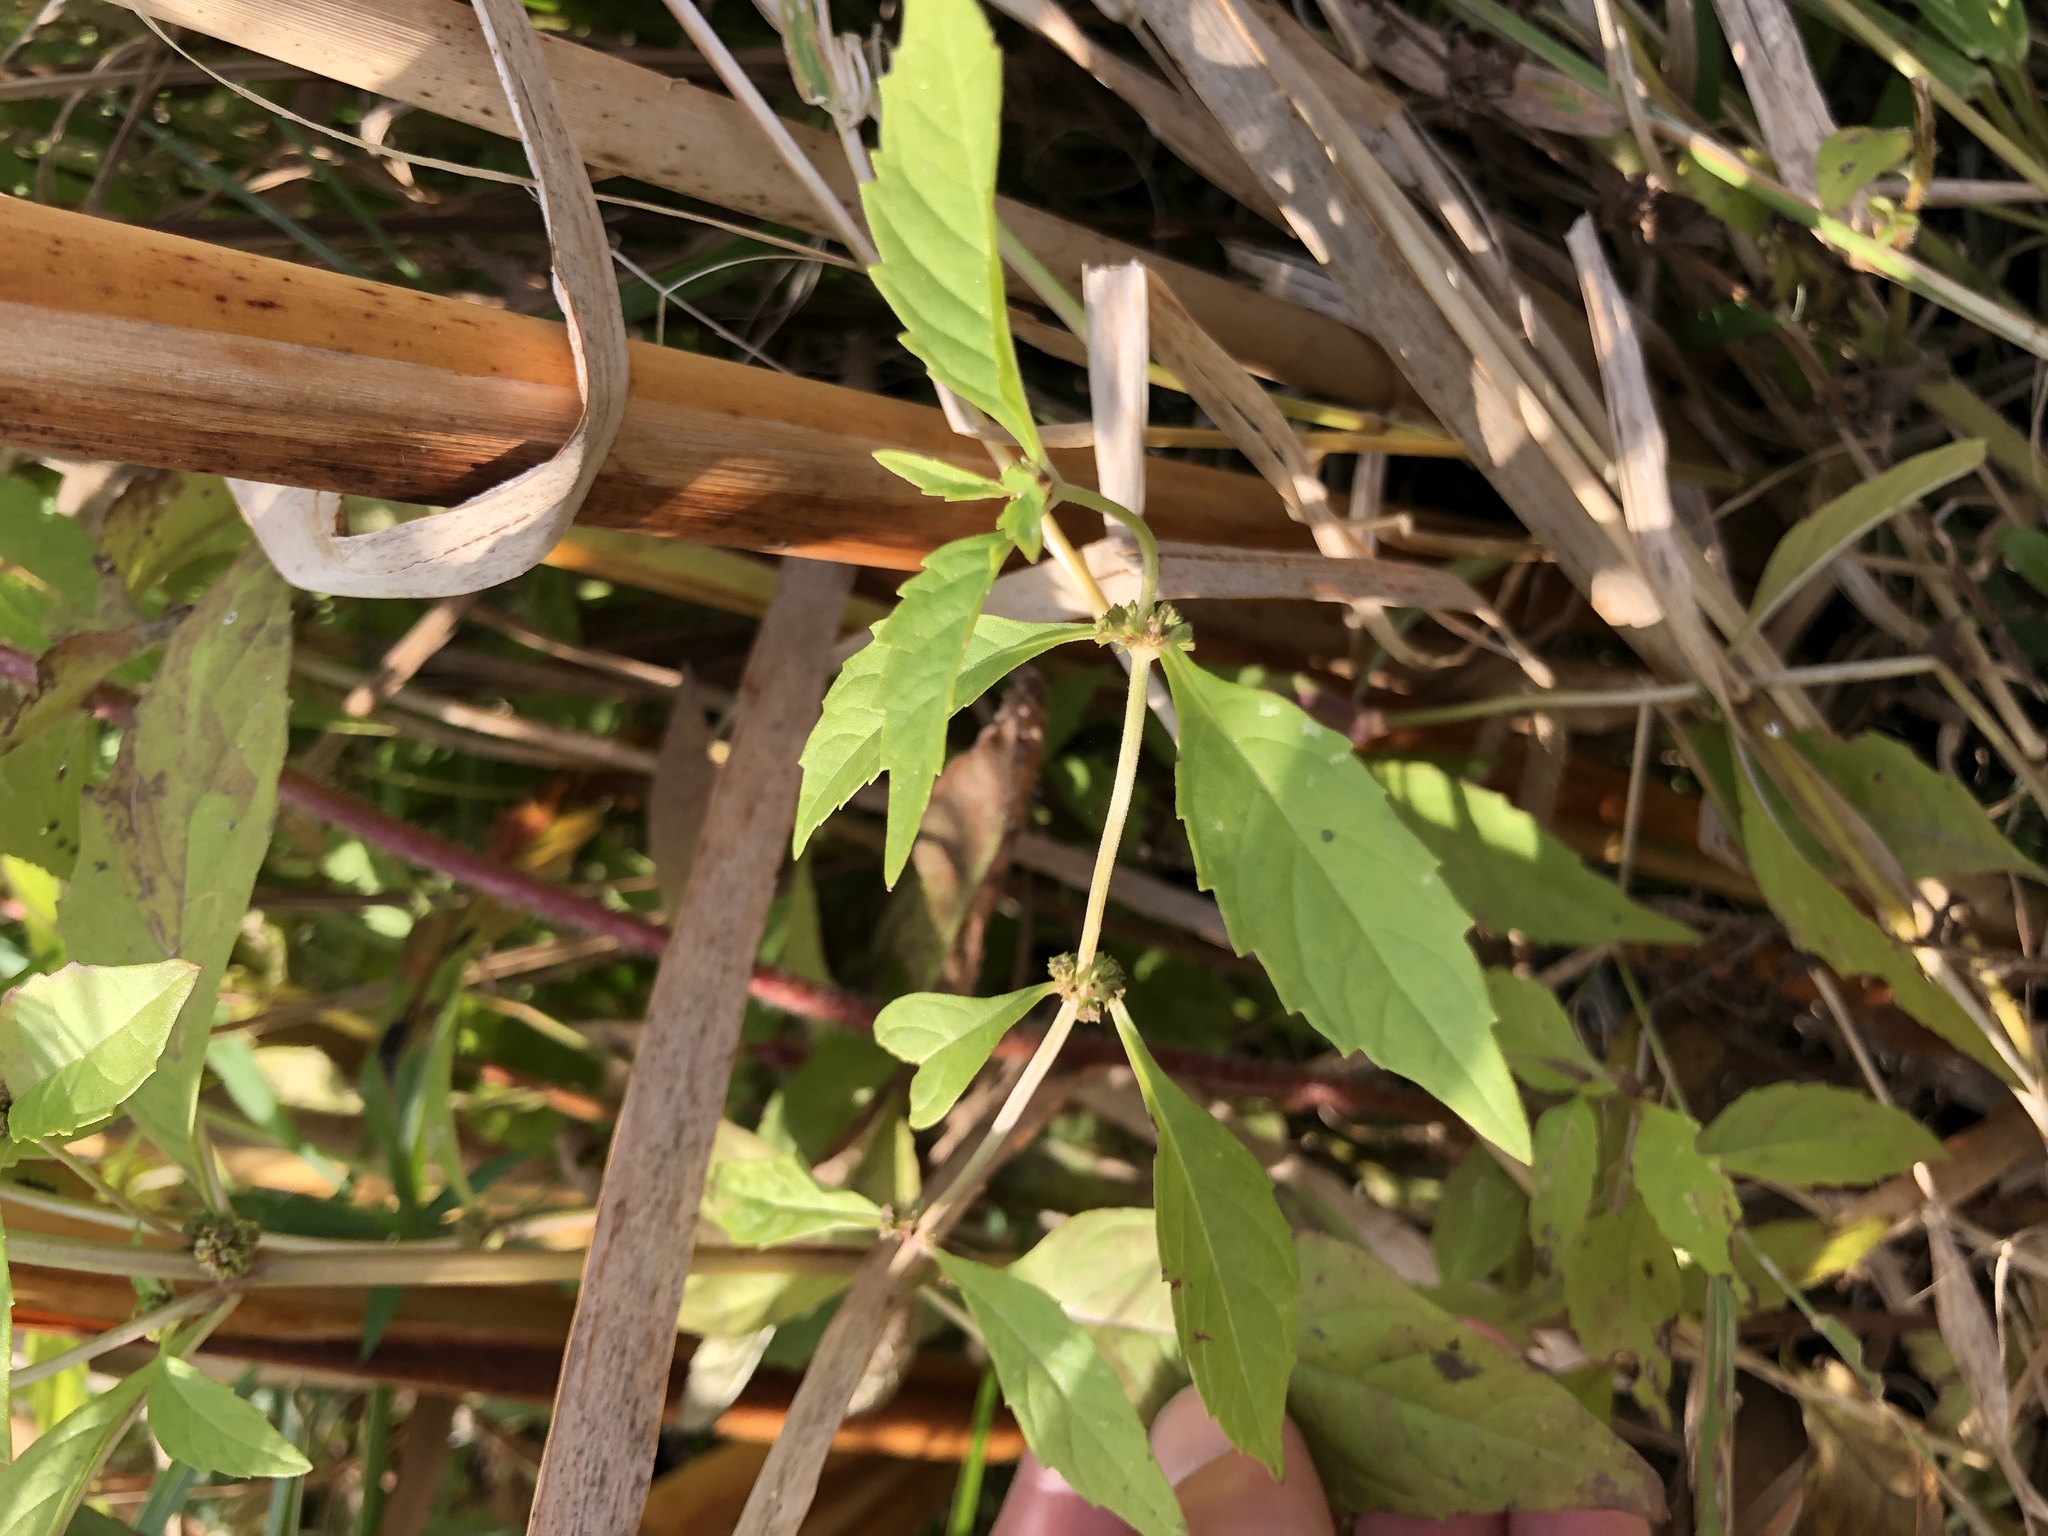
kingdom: Plantae
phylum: Tracheophyta
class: Magnoliopsida
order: Lamiales
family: Lamiaceae
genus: Lycopus
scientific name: Lycopus uniflorus
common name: Northern bugleweed
